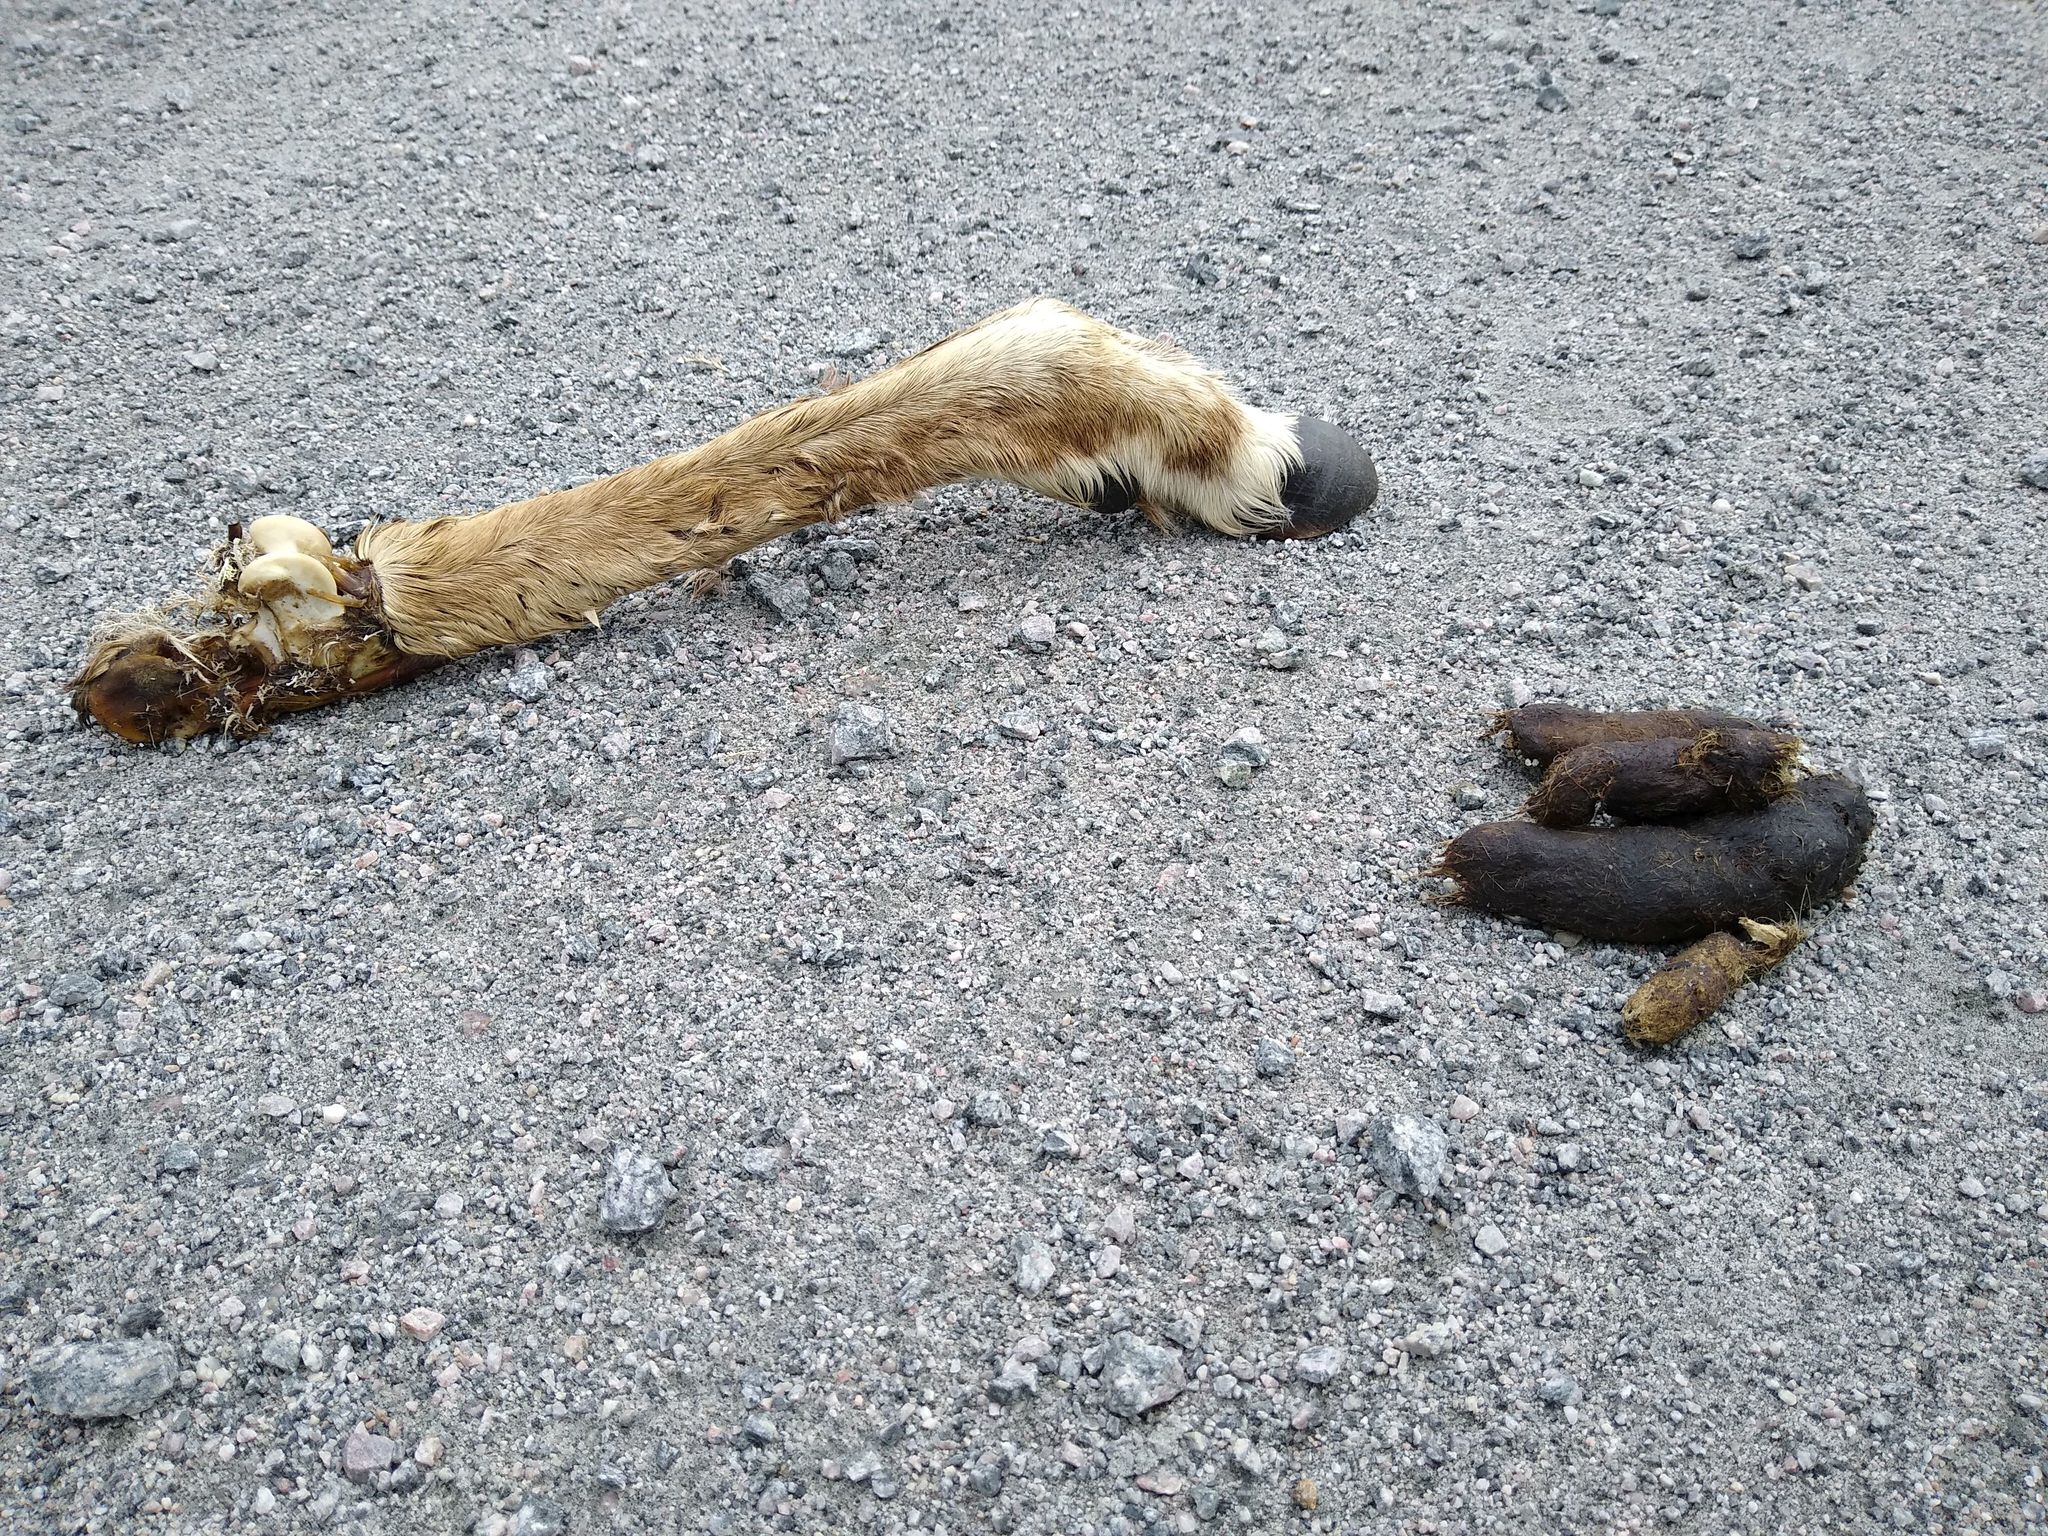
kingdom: Animalia
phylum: Chordata
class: Mammalia
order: Carnivora
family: Canidae
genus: Canis
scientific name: Canis lupus
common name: Gray wolf
